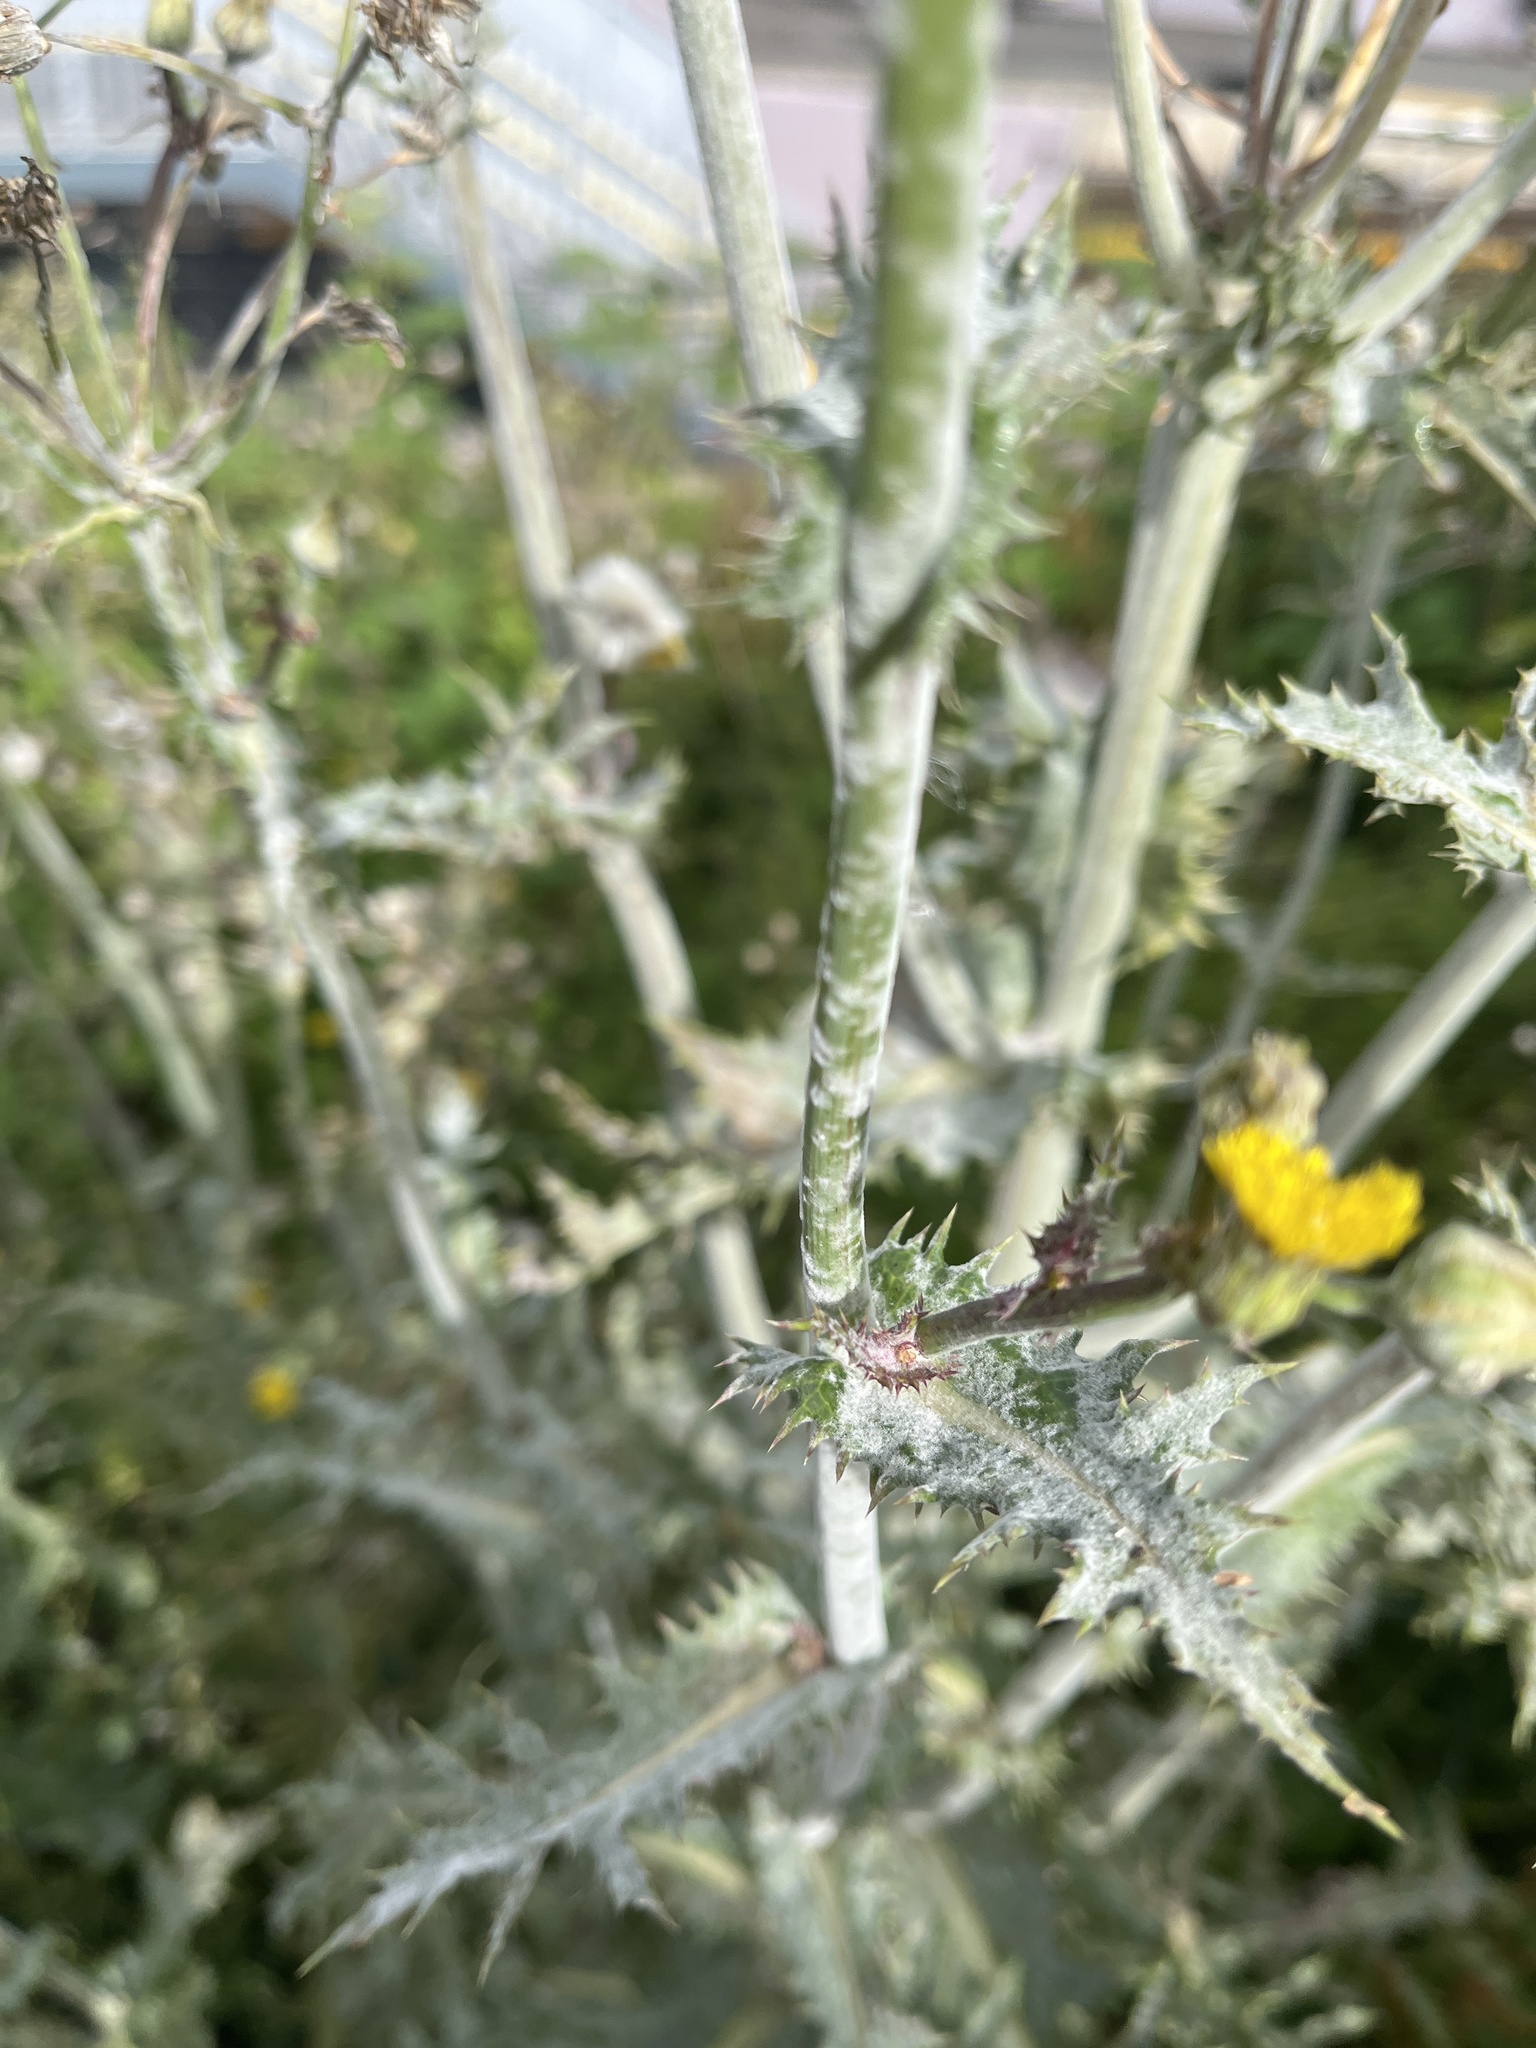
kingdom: Fungi
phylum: Ascomycota
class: Leotiomycetes
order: Helotiales
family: Erysiphaceae
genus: Golovinomyces
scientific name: Golovinomyces sonchicola
